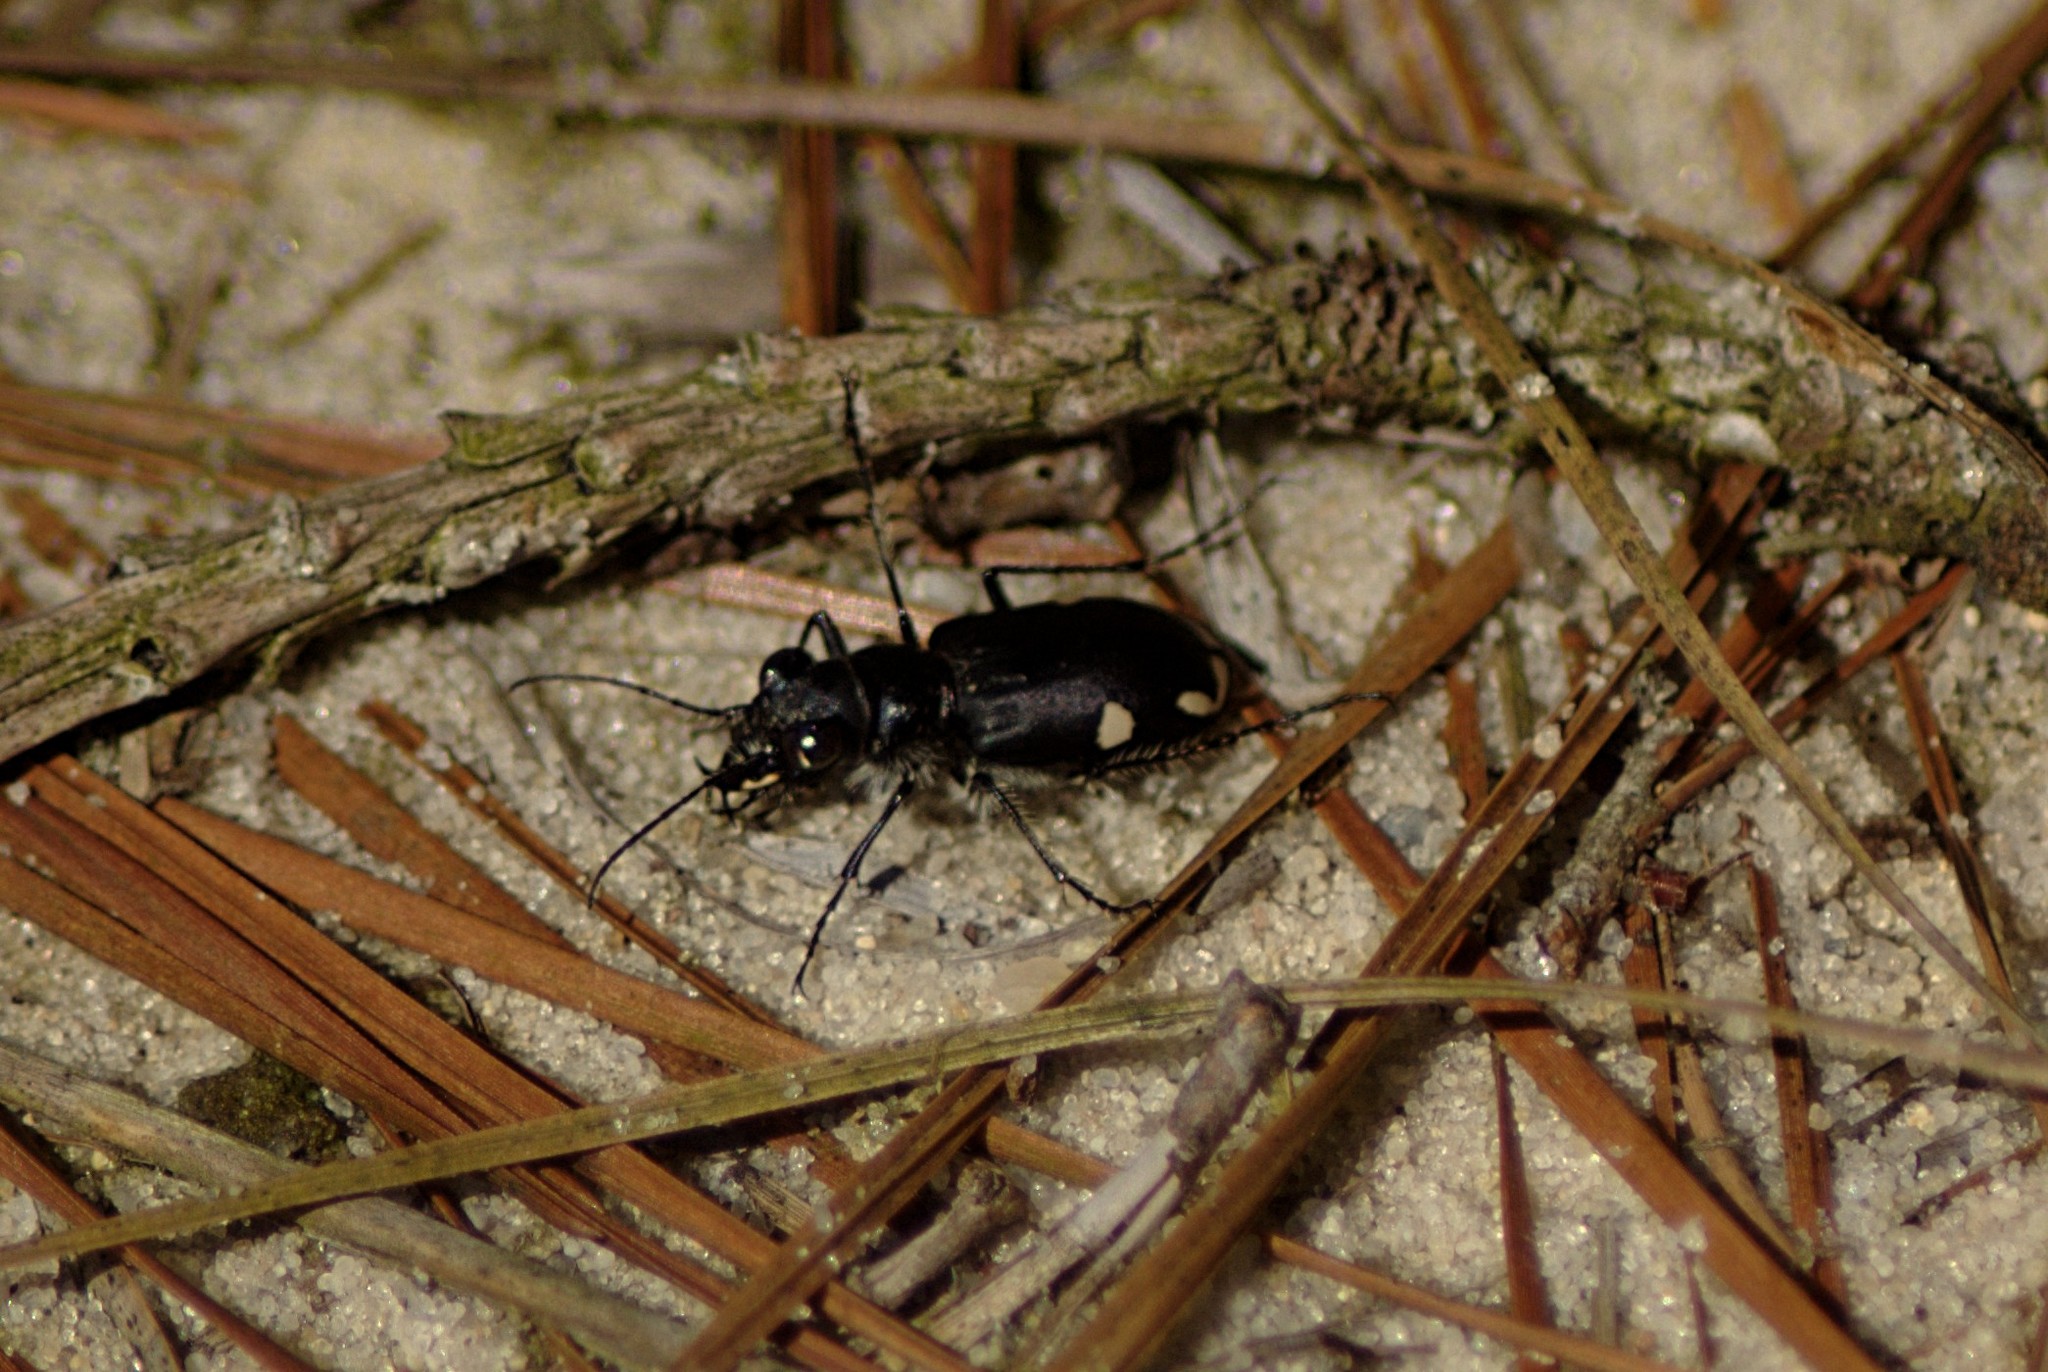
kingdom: Animalia
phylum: Arthropoda
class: Insecta
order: Coleoptera
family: Carabidae
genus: Cicindela
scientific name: Cicindela scutellaris
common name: Festive tiger beetle
